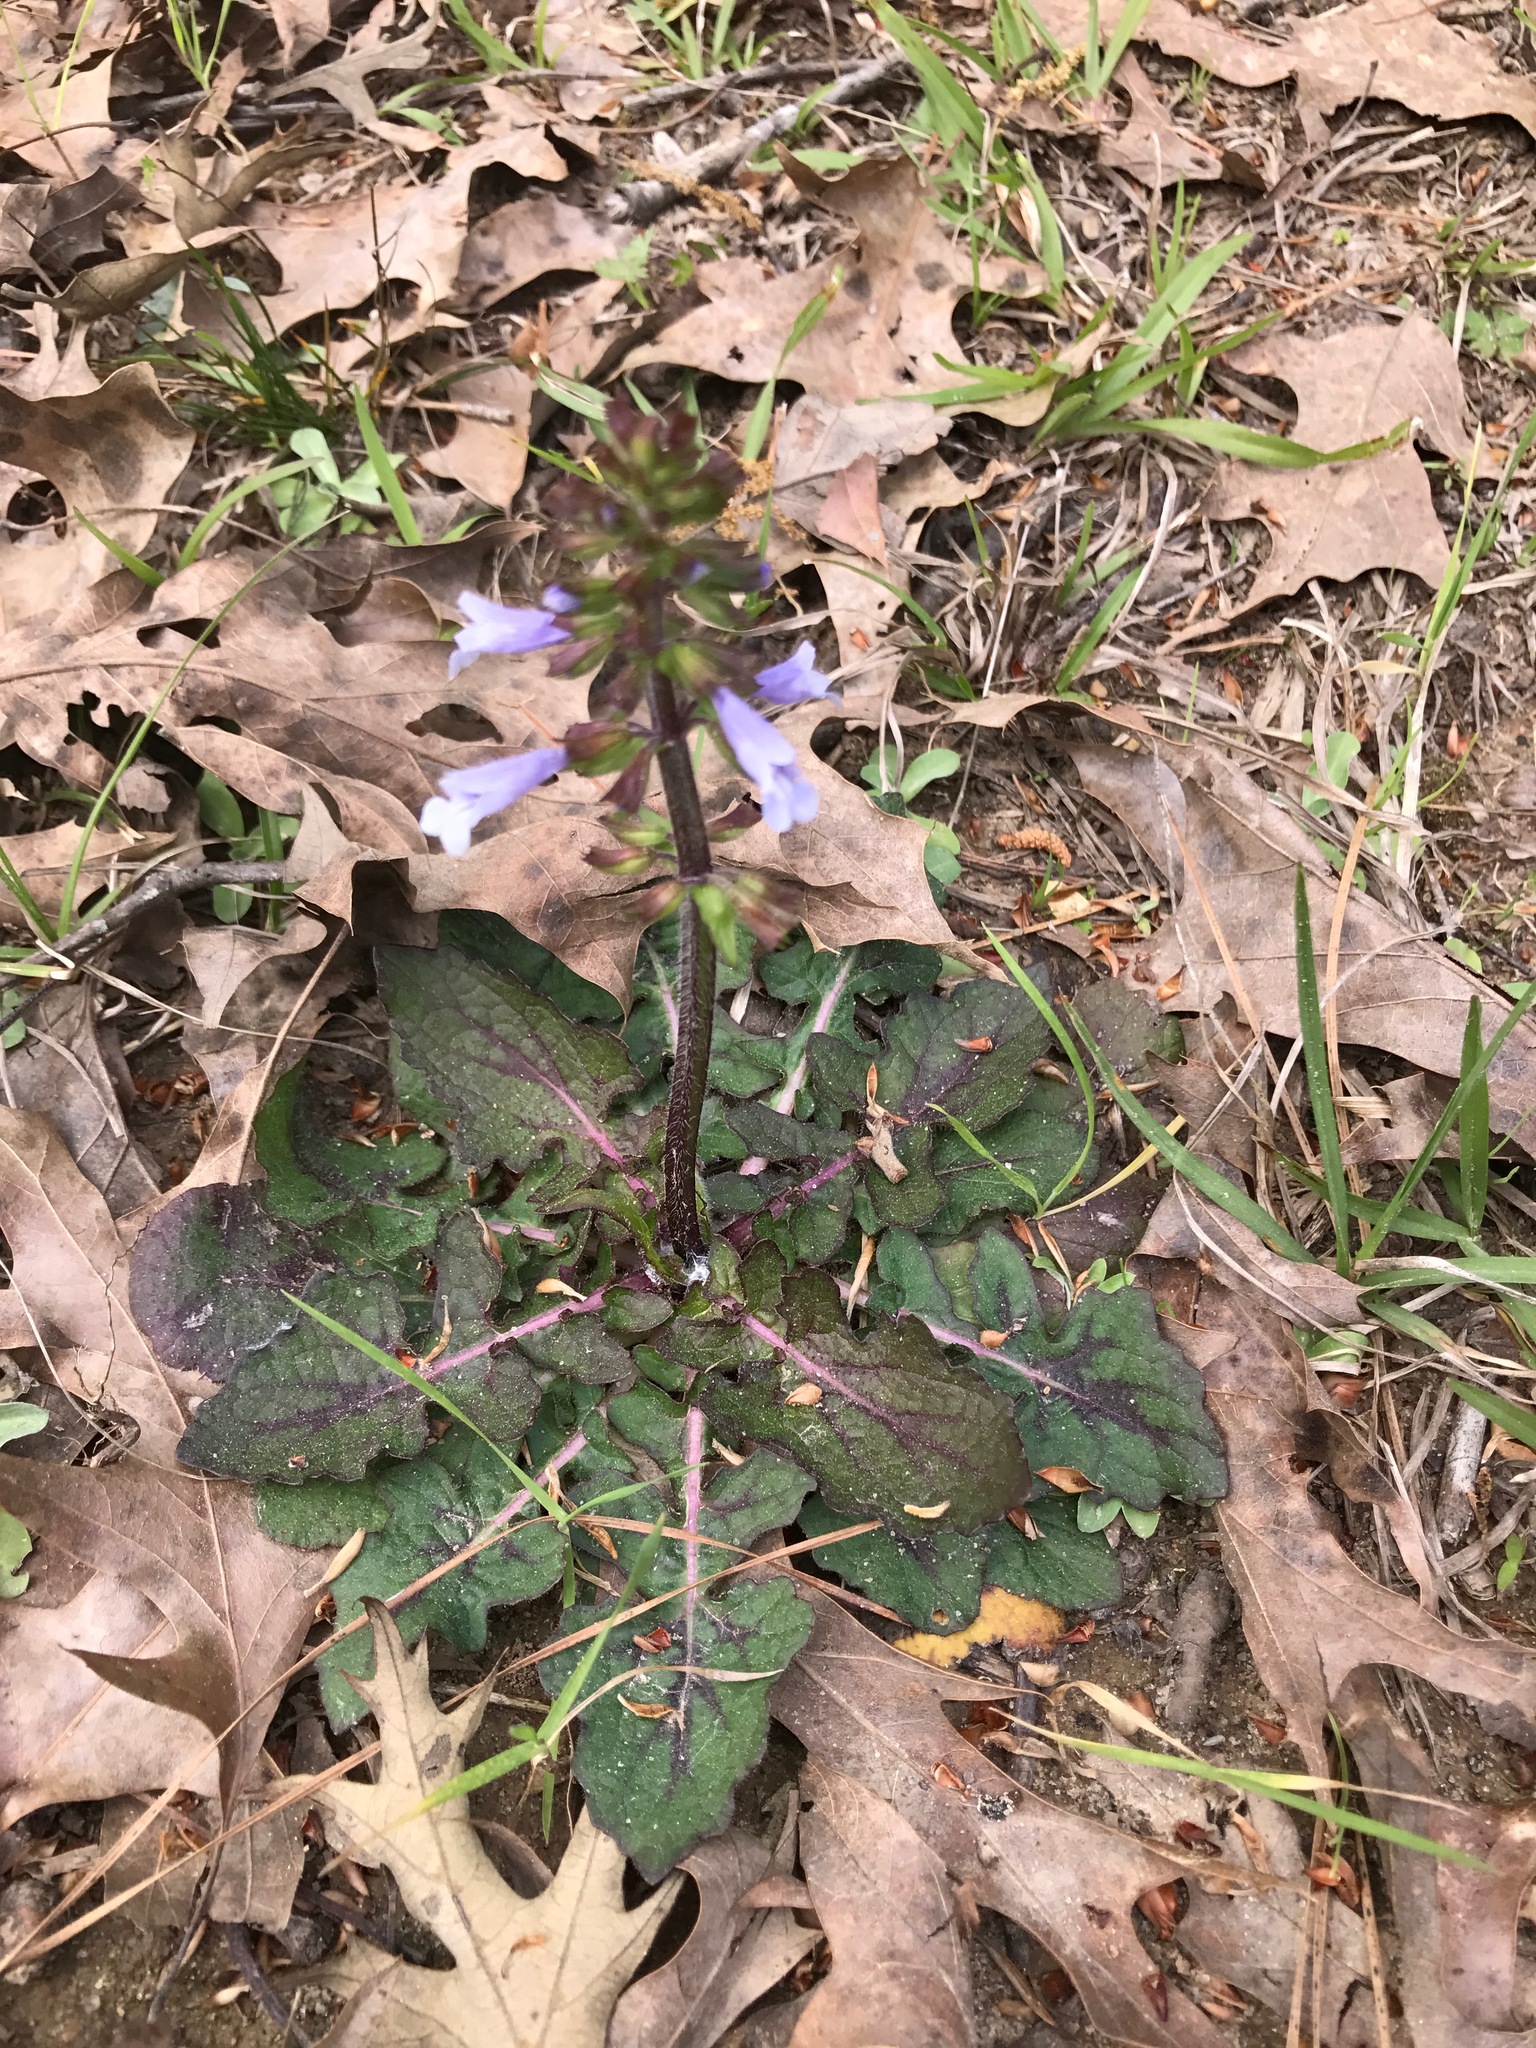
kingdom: Plantae
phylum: Tracheophyta
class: Magnoliopsida
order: Lamiales
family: Lamiaceae
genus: Salvia
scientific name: Salvia lyrata
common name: Cancerweed
